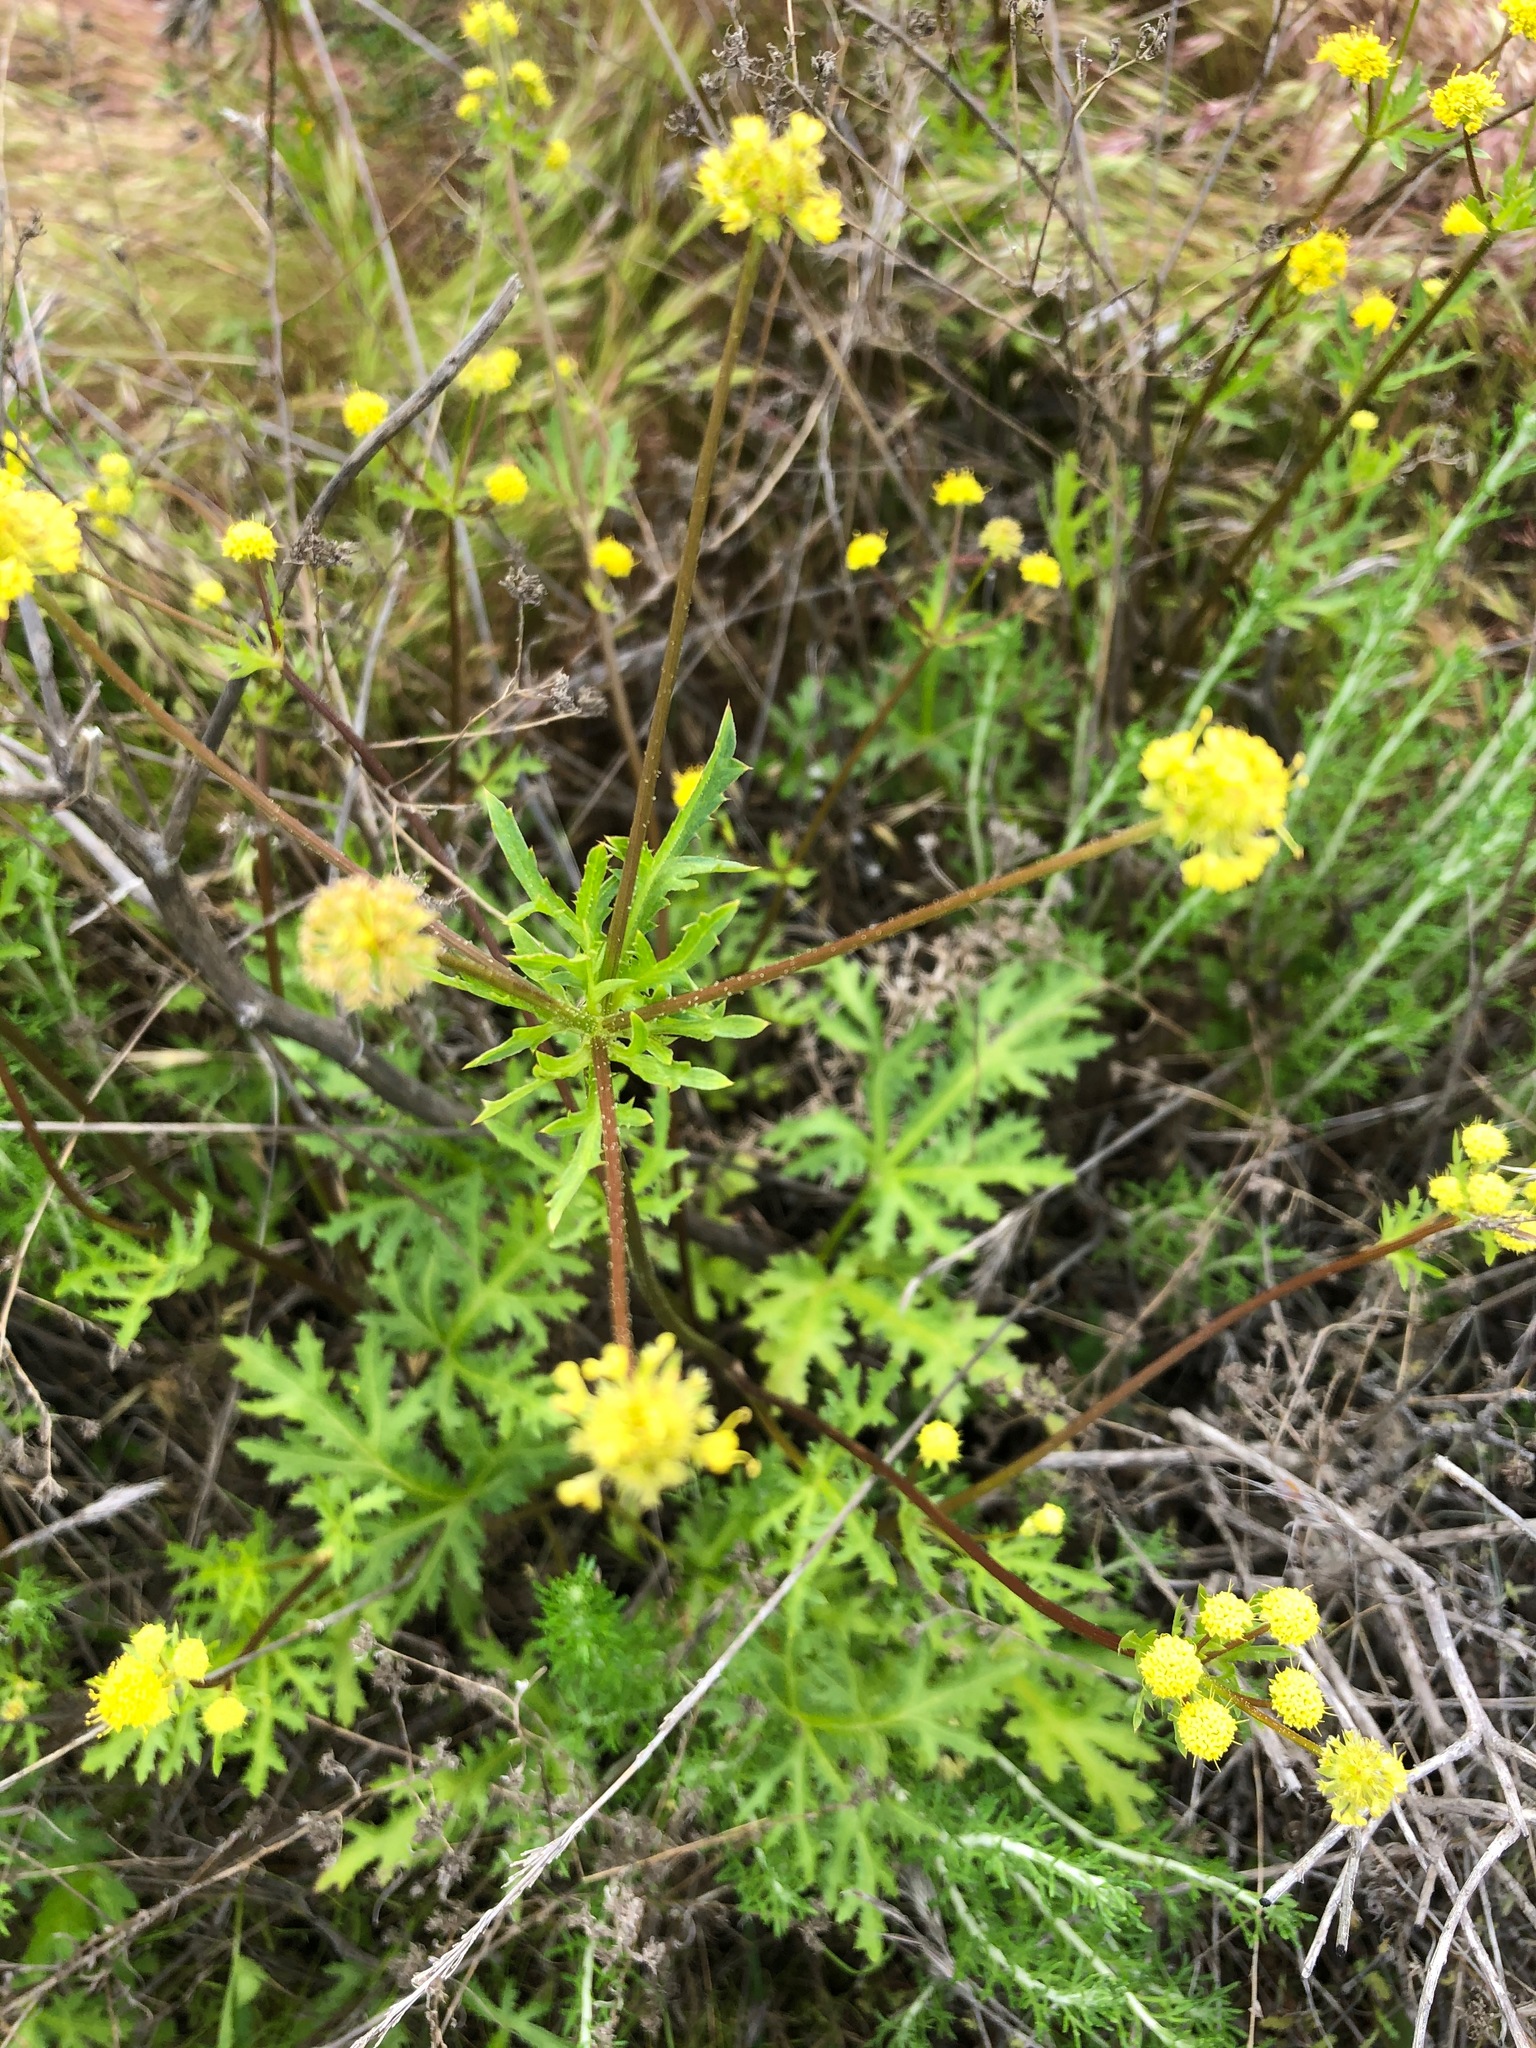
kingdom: Plantae
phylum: Tracheophyta
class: Magnoliopsida
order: Apiales
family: Apiaceae
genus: Sanicula
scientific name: Sanicula arguta
